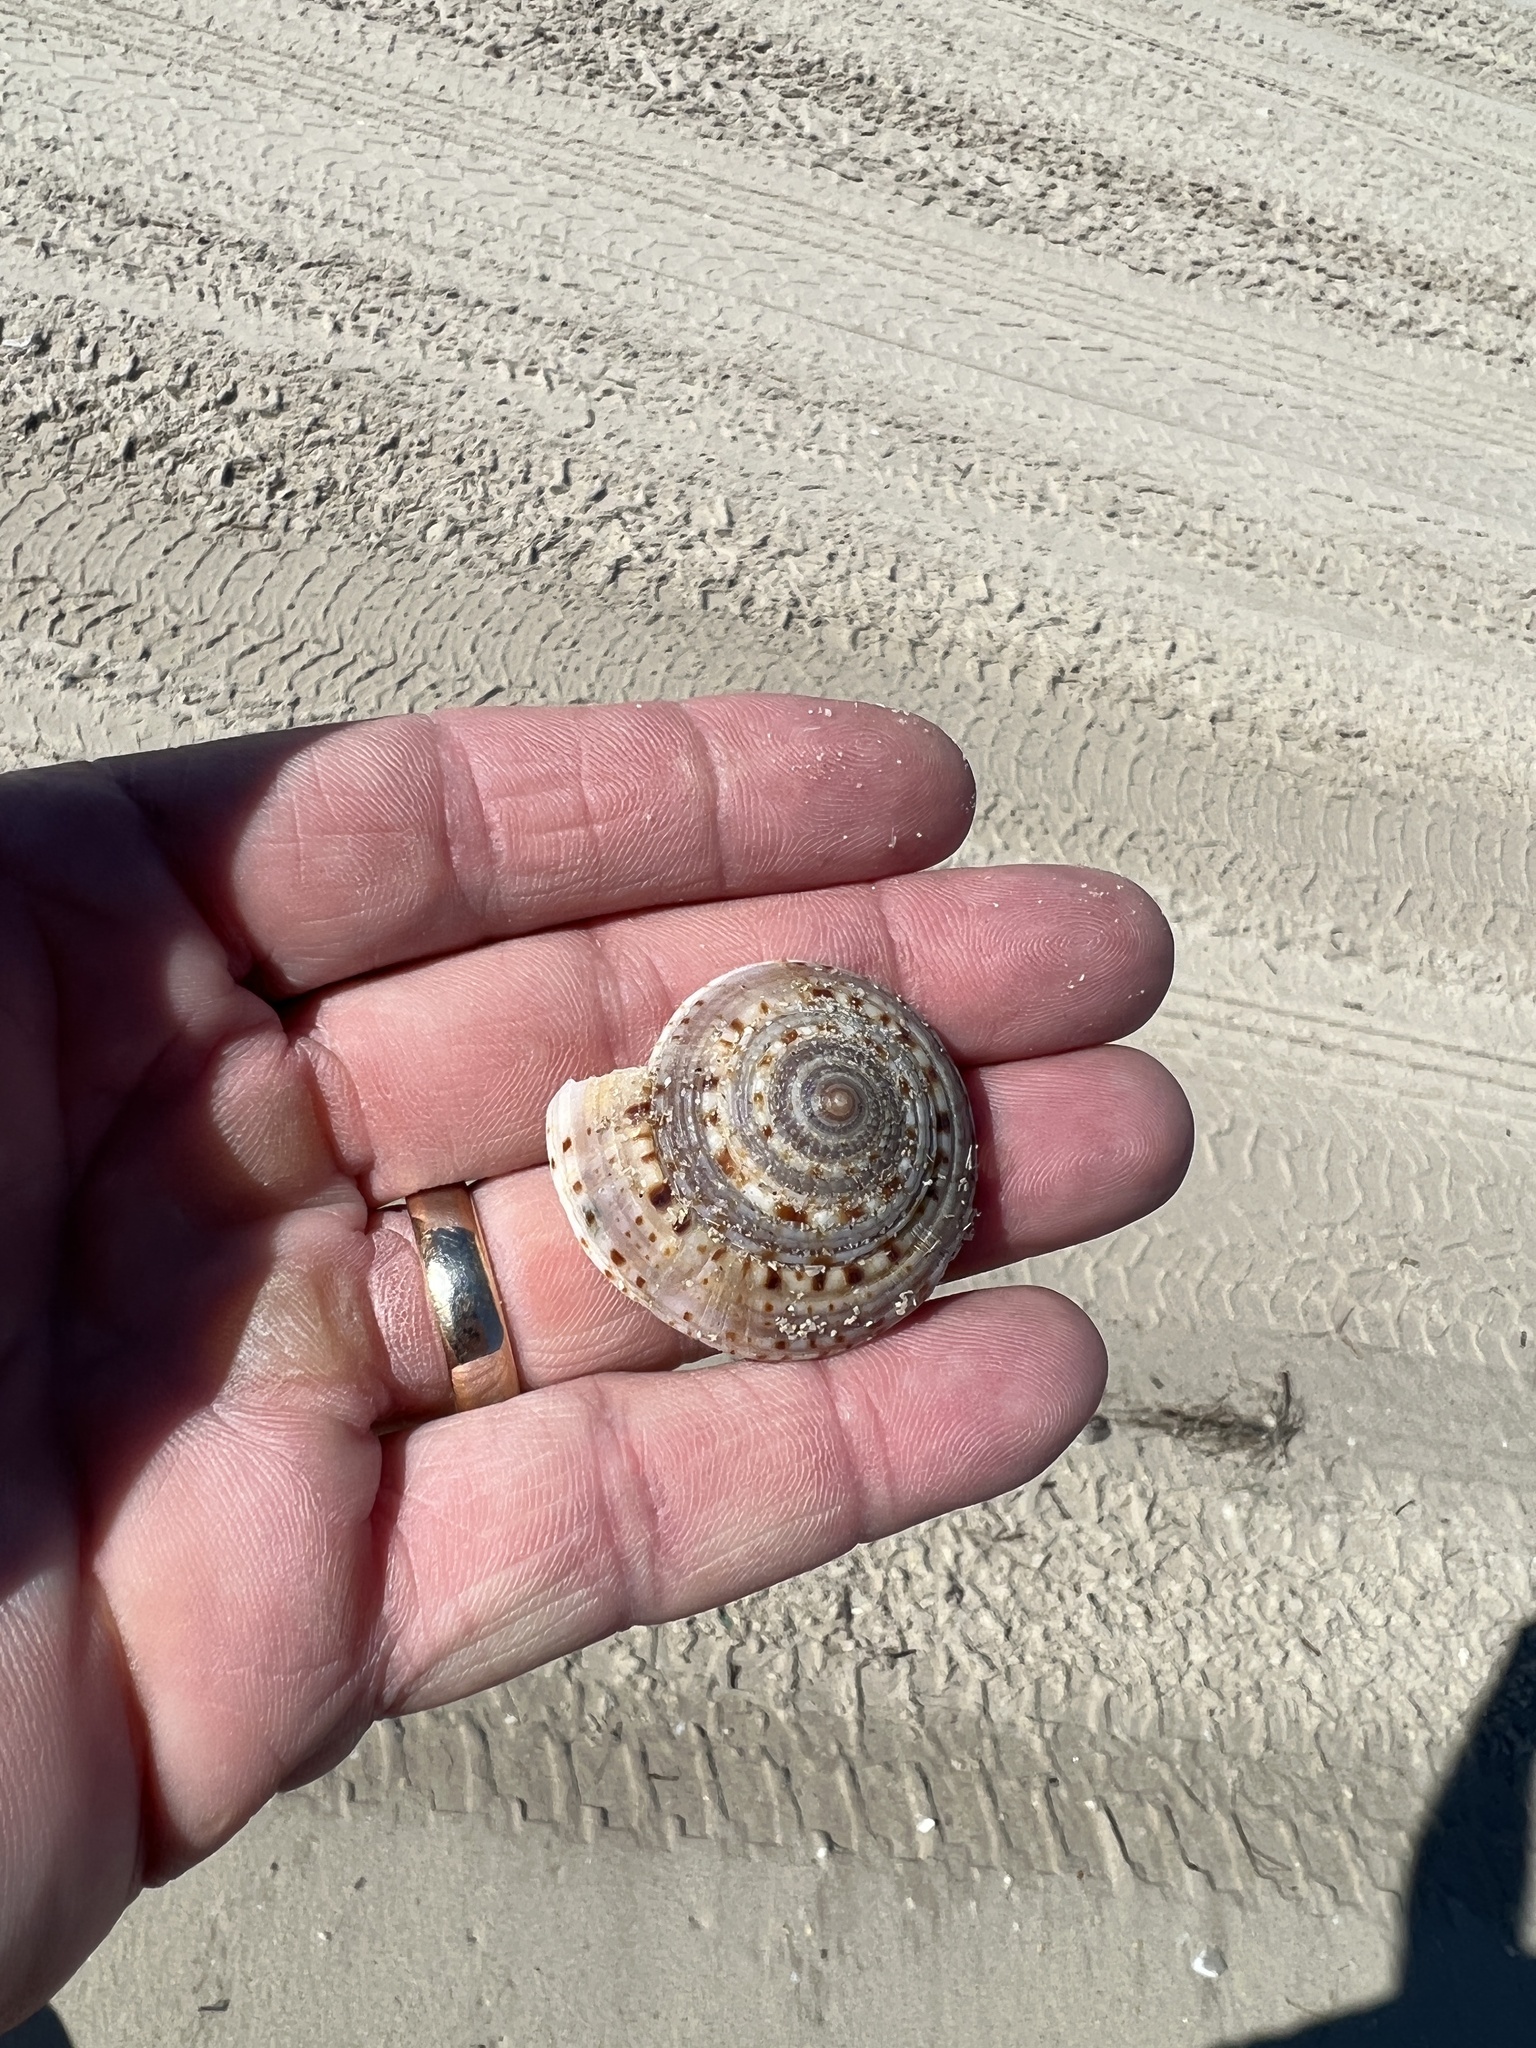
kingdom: Animalia
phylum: Mollusca
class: Gastropoda
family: Architectonicidae
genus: Architectonica
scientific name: Architectonica nobilis
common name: Common sundial
